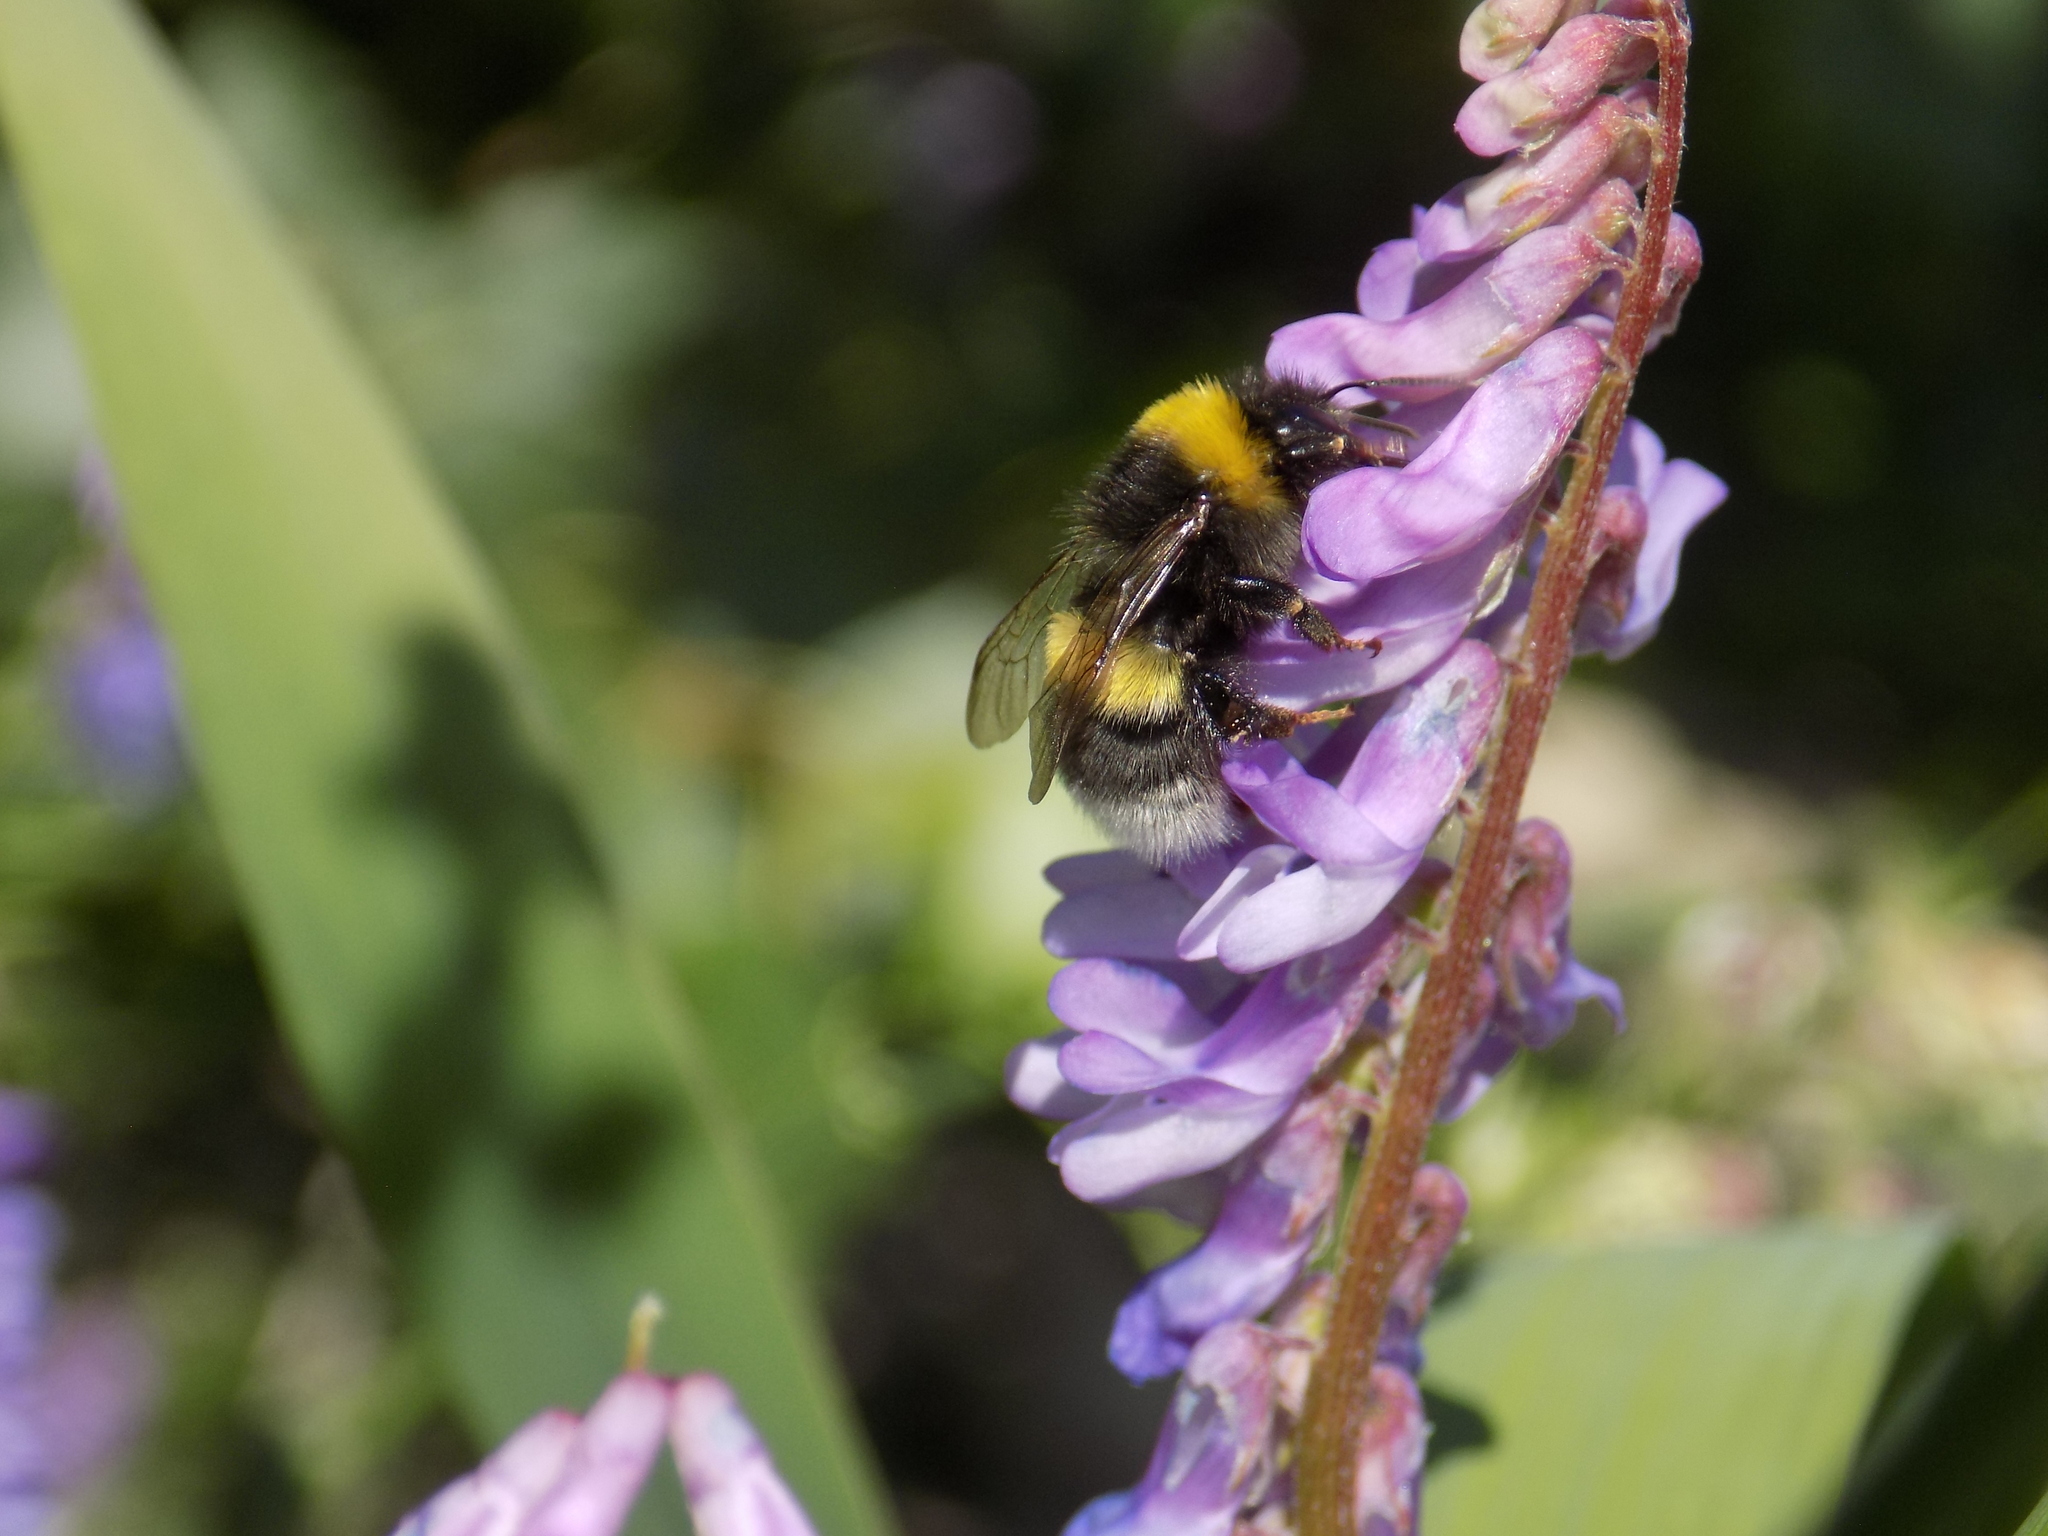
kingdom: Animalia
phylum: Arthropoda
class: Insecta
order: Hymenoptera
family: Apidae
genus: Bombus
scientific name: Bombus
